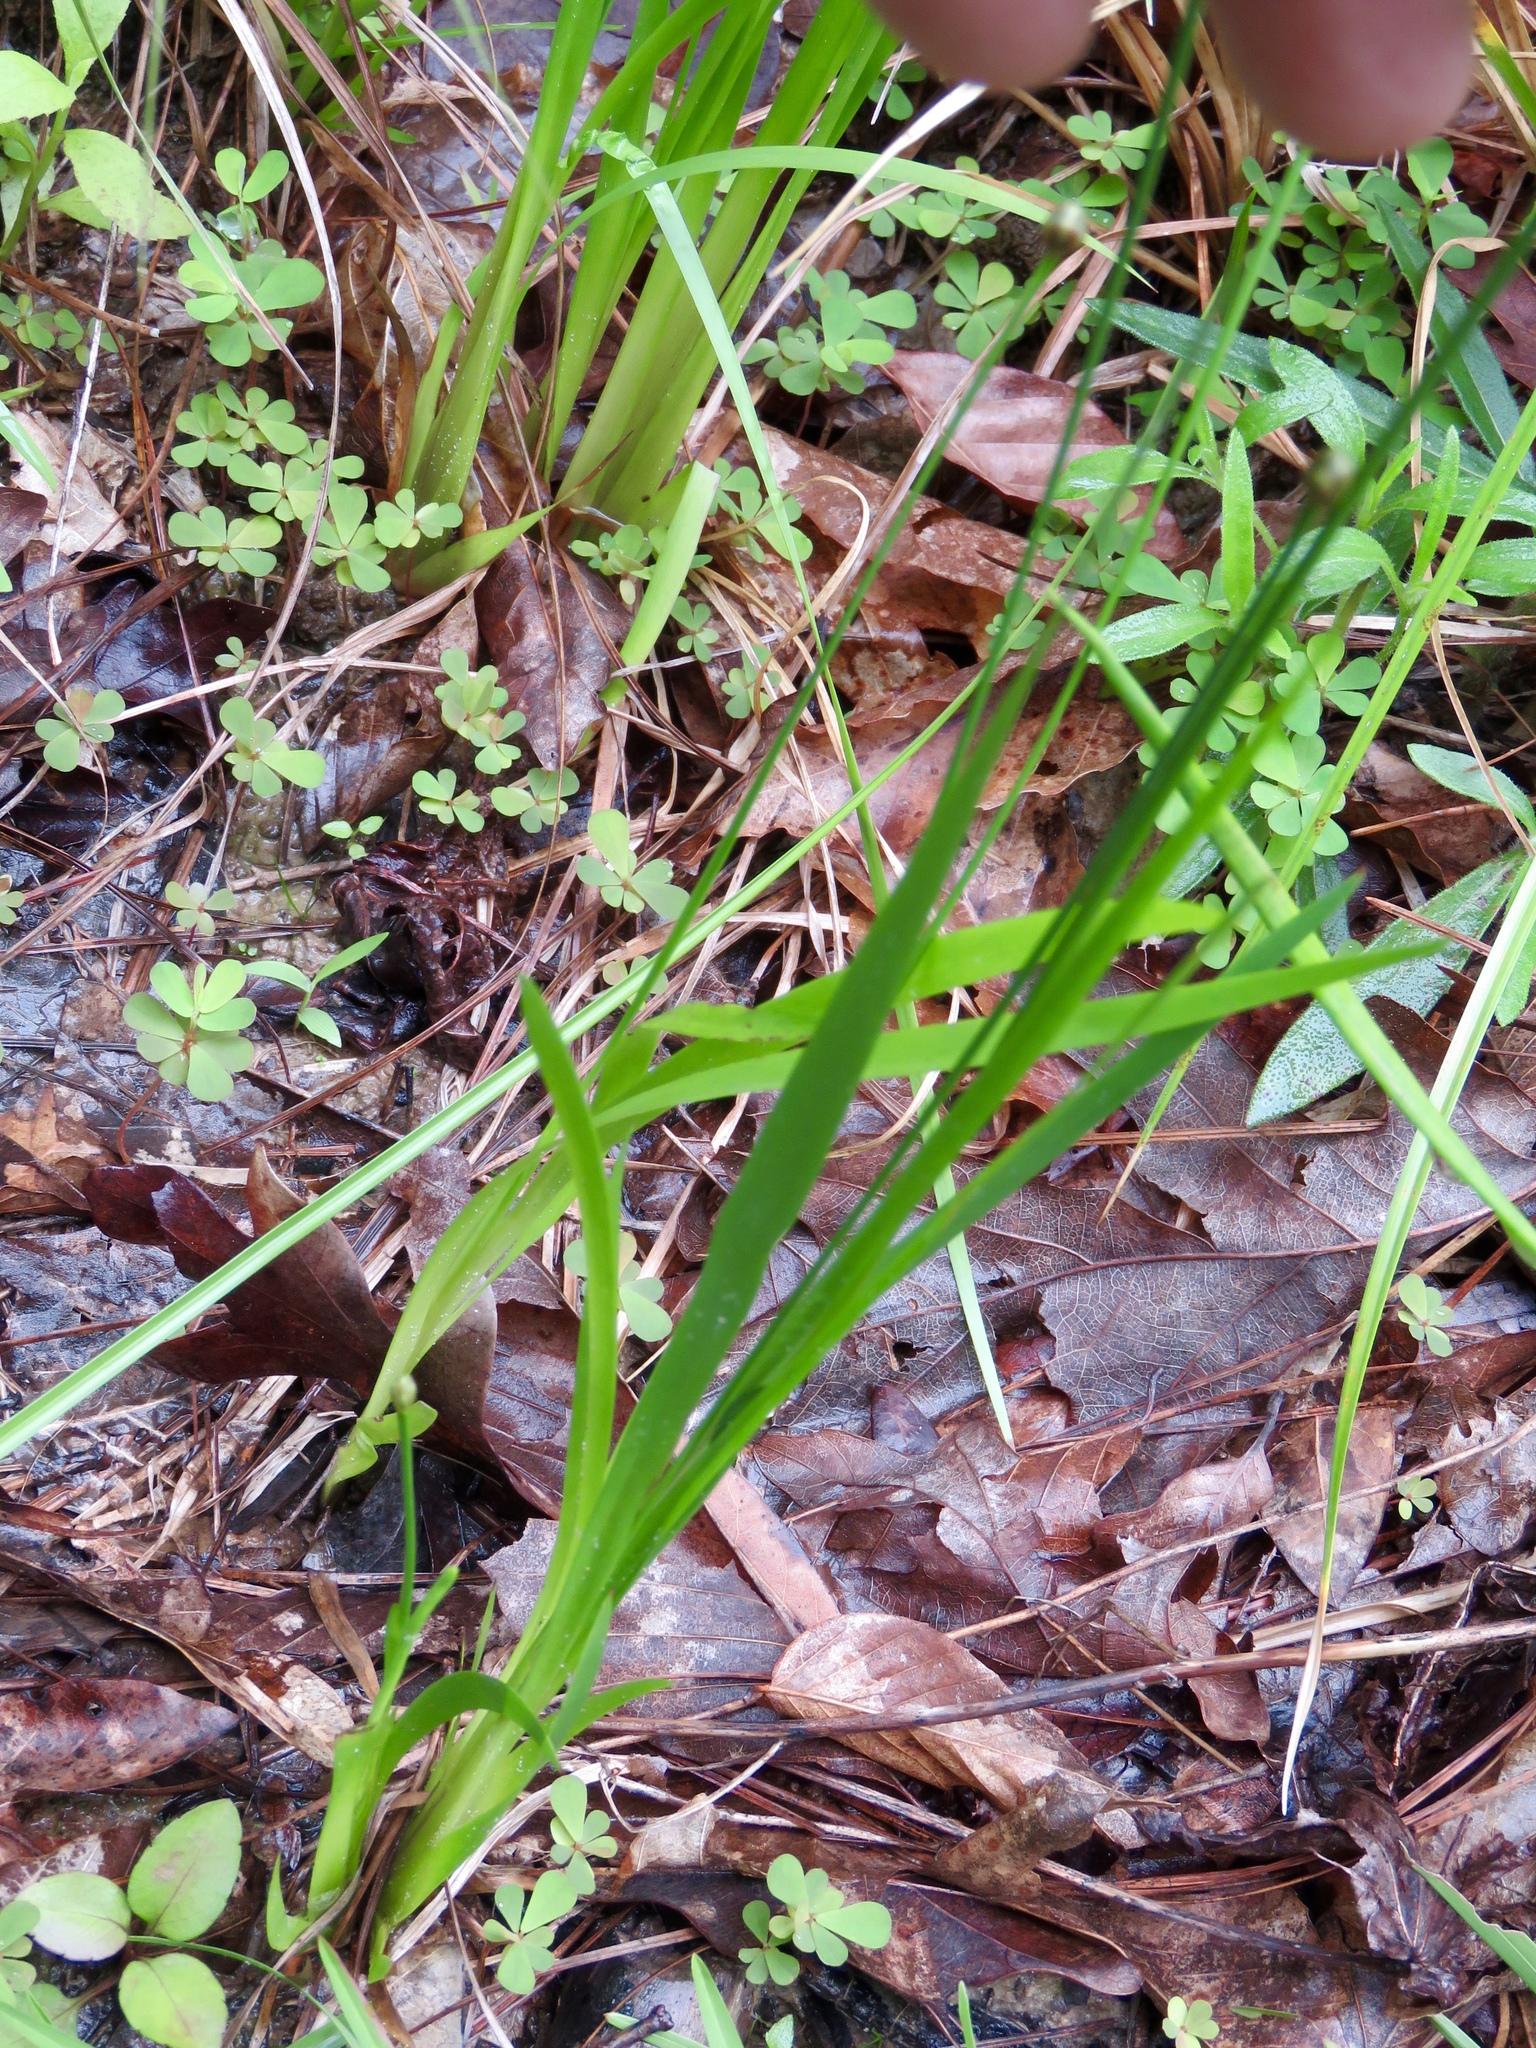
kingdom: Plantae
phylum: Tracheophyta
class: Liliopsida
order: Poales
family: Xyridaceae
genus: Xyris
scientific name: Xyris jupicai
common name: Richard's yelloweyed grass
